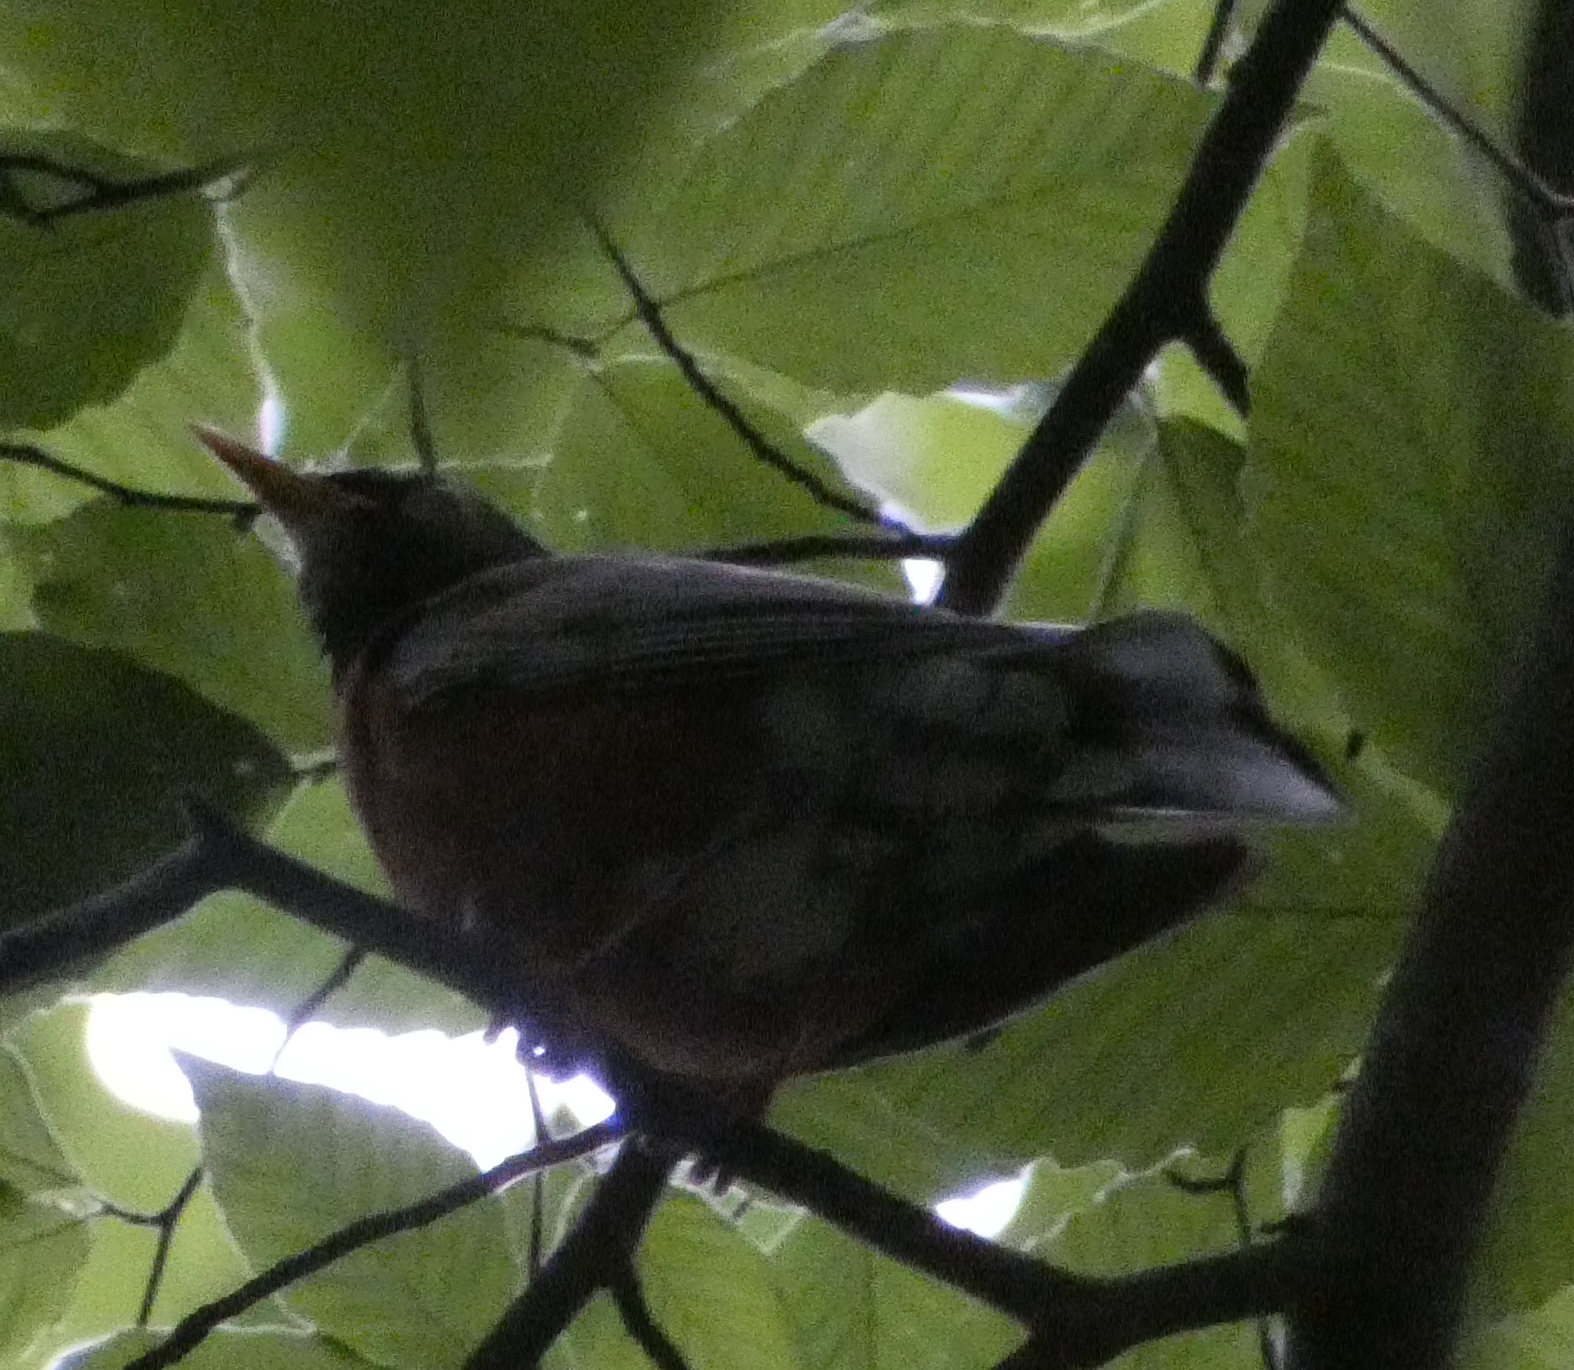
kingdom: Animalia
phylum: Chordata
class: Aves
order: Passeriformes
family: Turdidae
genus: Turdus
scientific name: Turdus migratorius
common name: American robin
